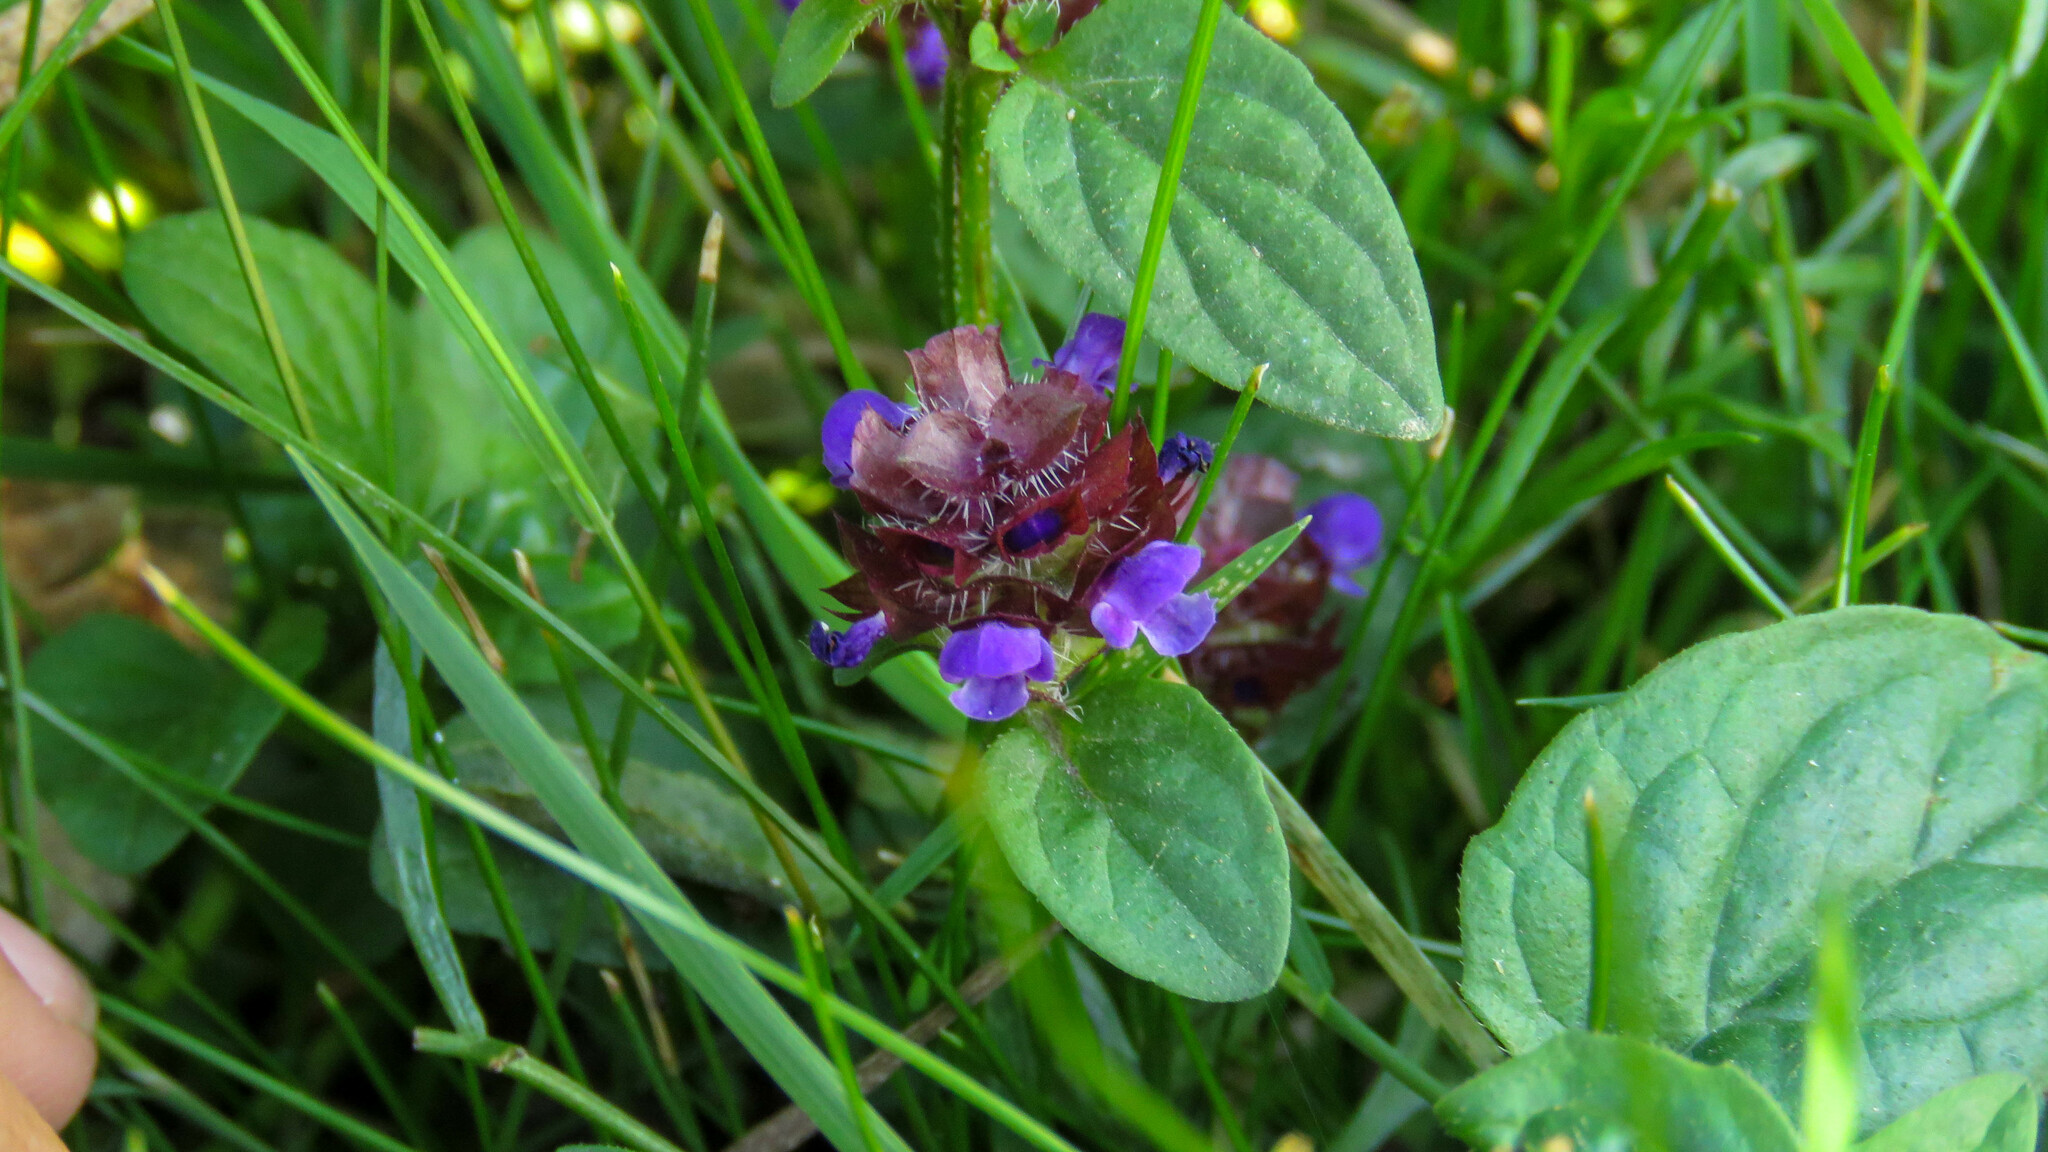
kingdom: Plantae
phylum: Tracheophyta
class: Magnoliopsida
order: Lamiales
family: Lamiaceae
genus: Prunella
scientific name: Prunella vulgaris
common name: Heal-all
